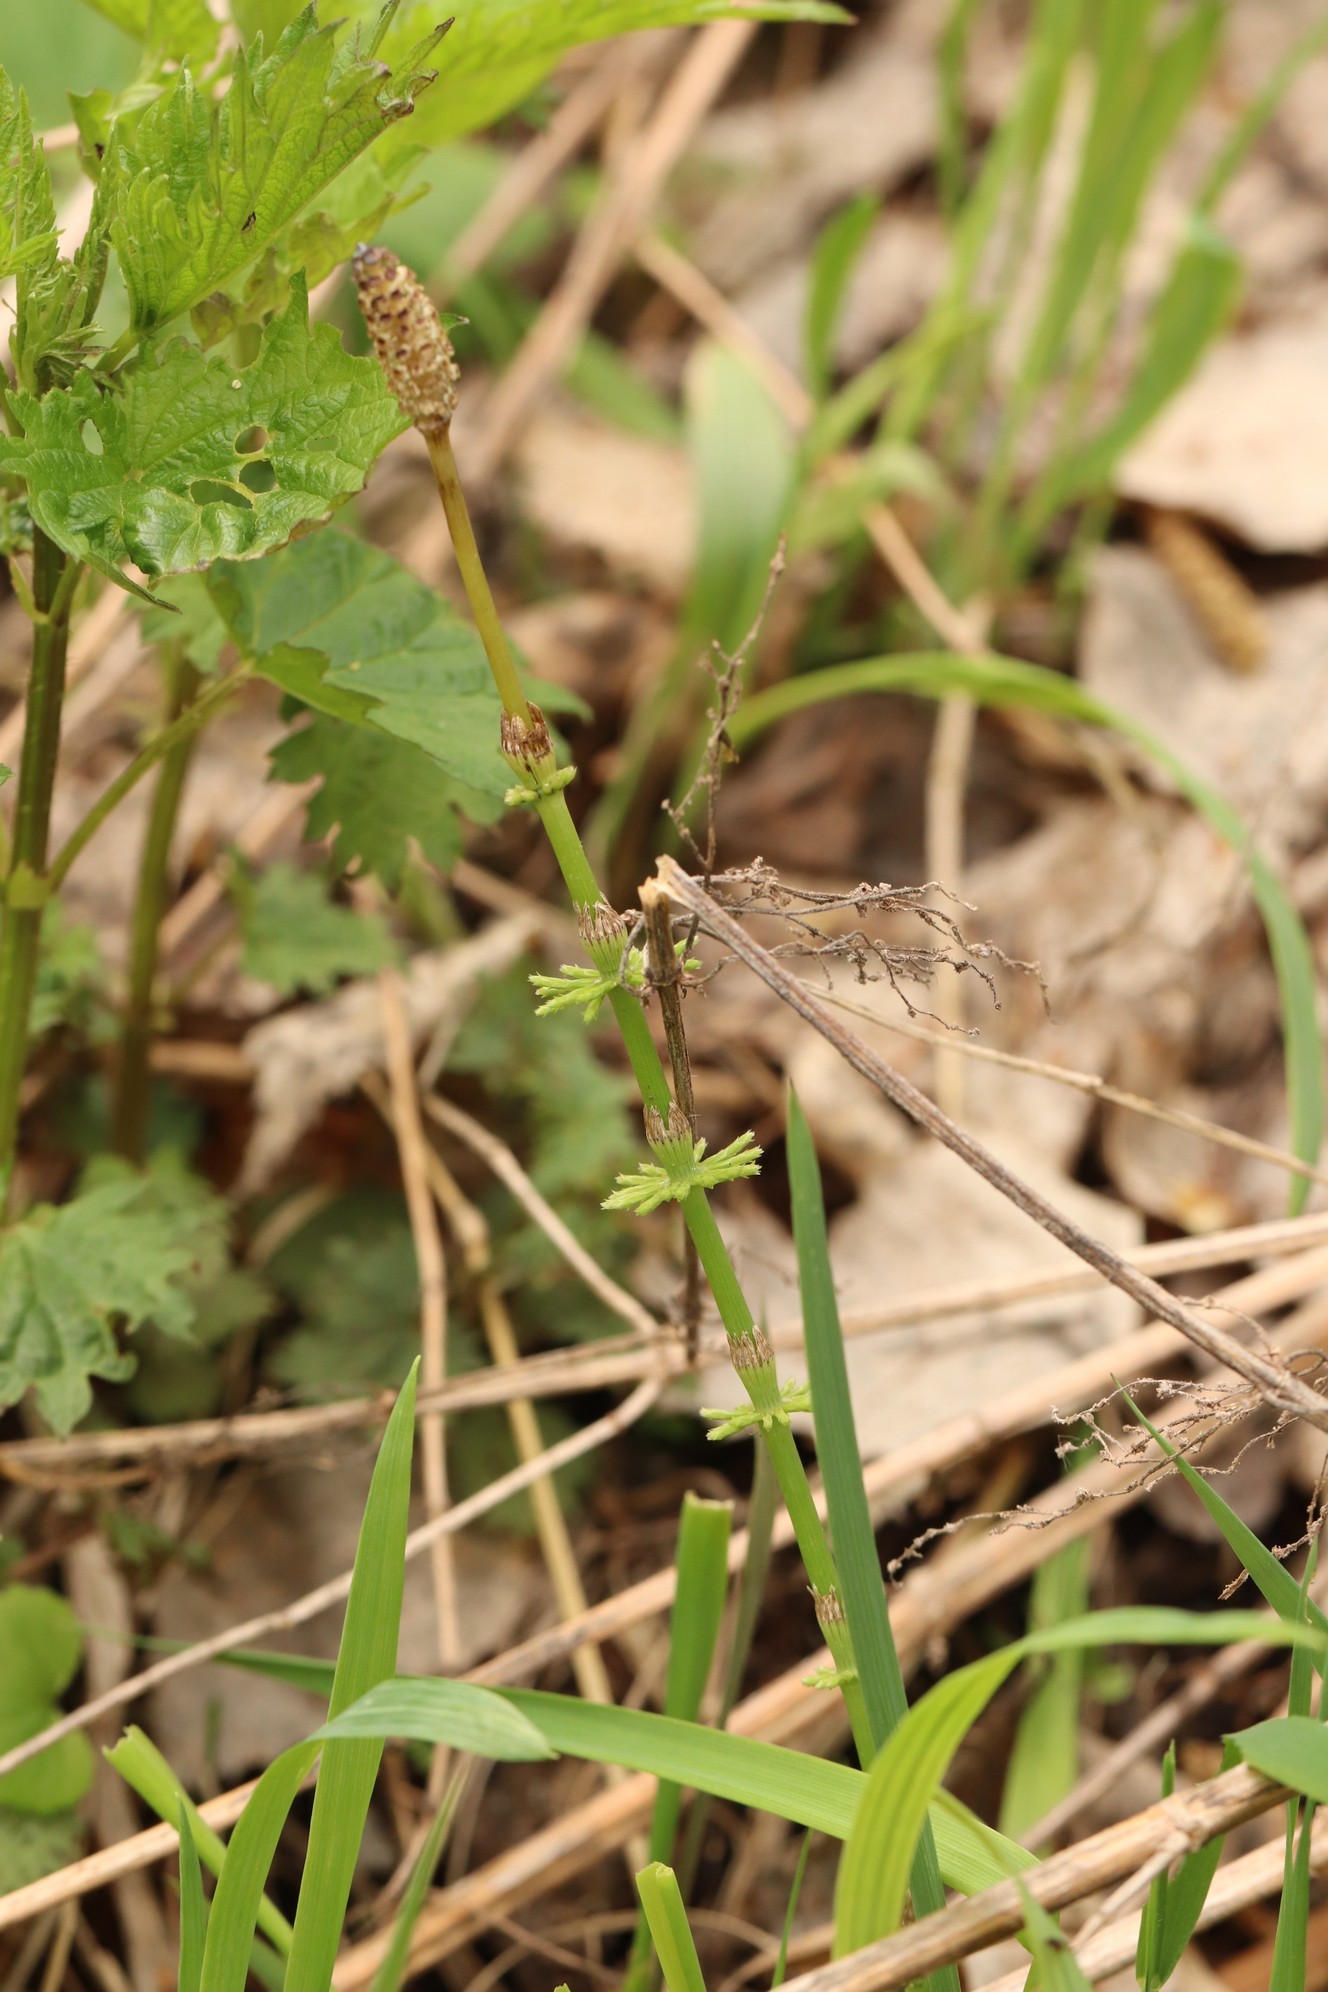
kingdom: Plantae
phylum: Tracheophyta
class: Polypodiopsida
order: Equisetales
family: Equisetaceae
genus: Equisetum
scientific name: Equisetum pratense
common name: Meadow horsetail
